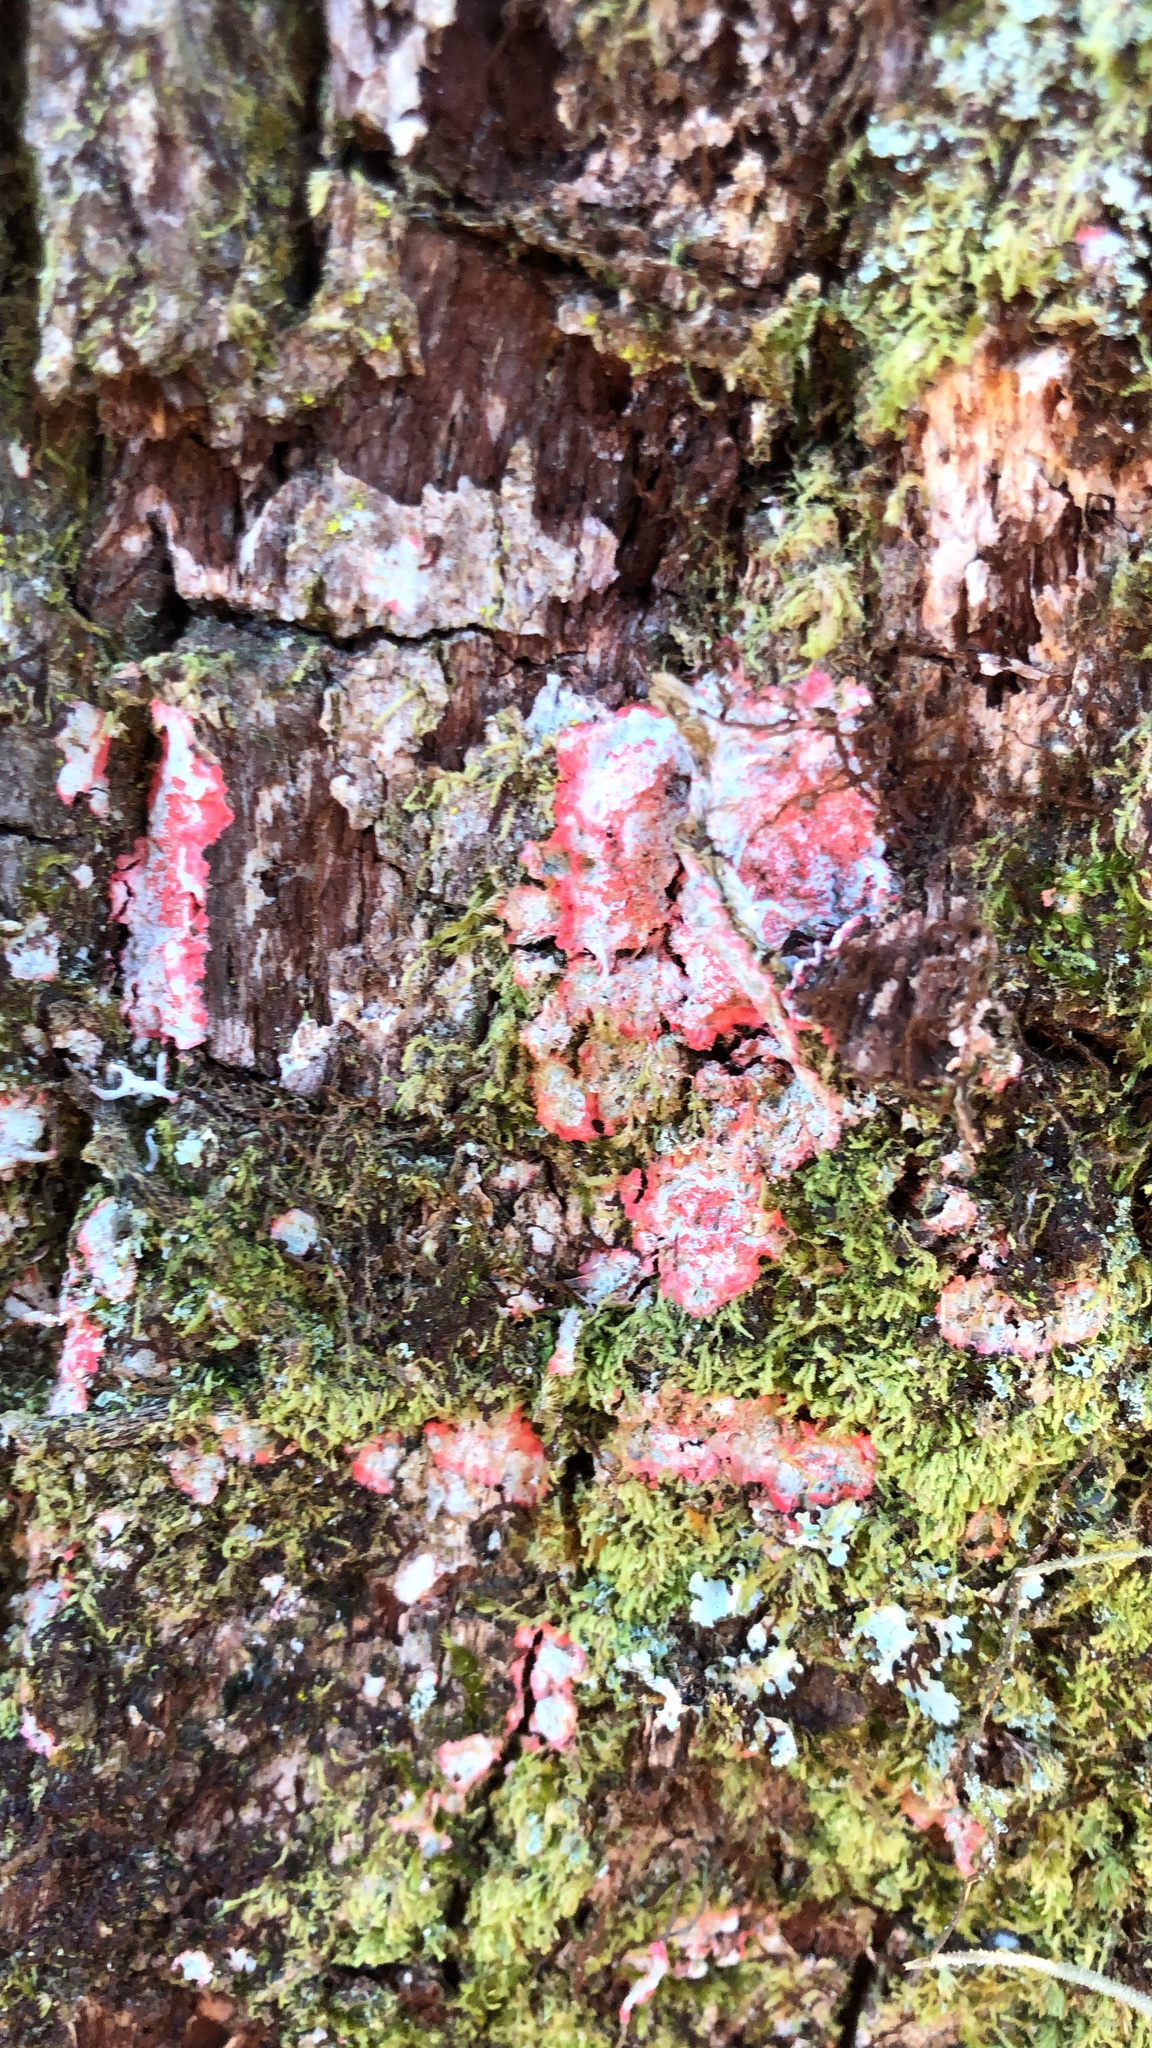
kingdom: Fungi
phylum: Ascomycota
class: Arthoniomycetes
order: Arthoniales
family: Arthoniaceae
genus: Herpothallon
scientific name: Herpothallon rubrocinctum
